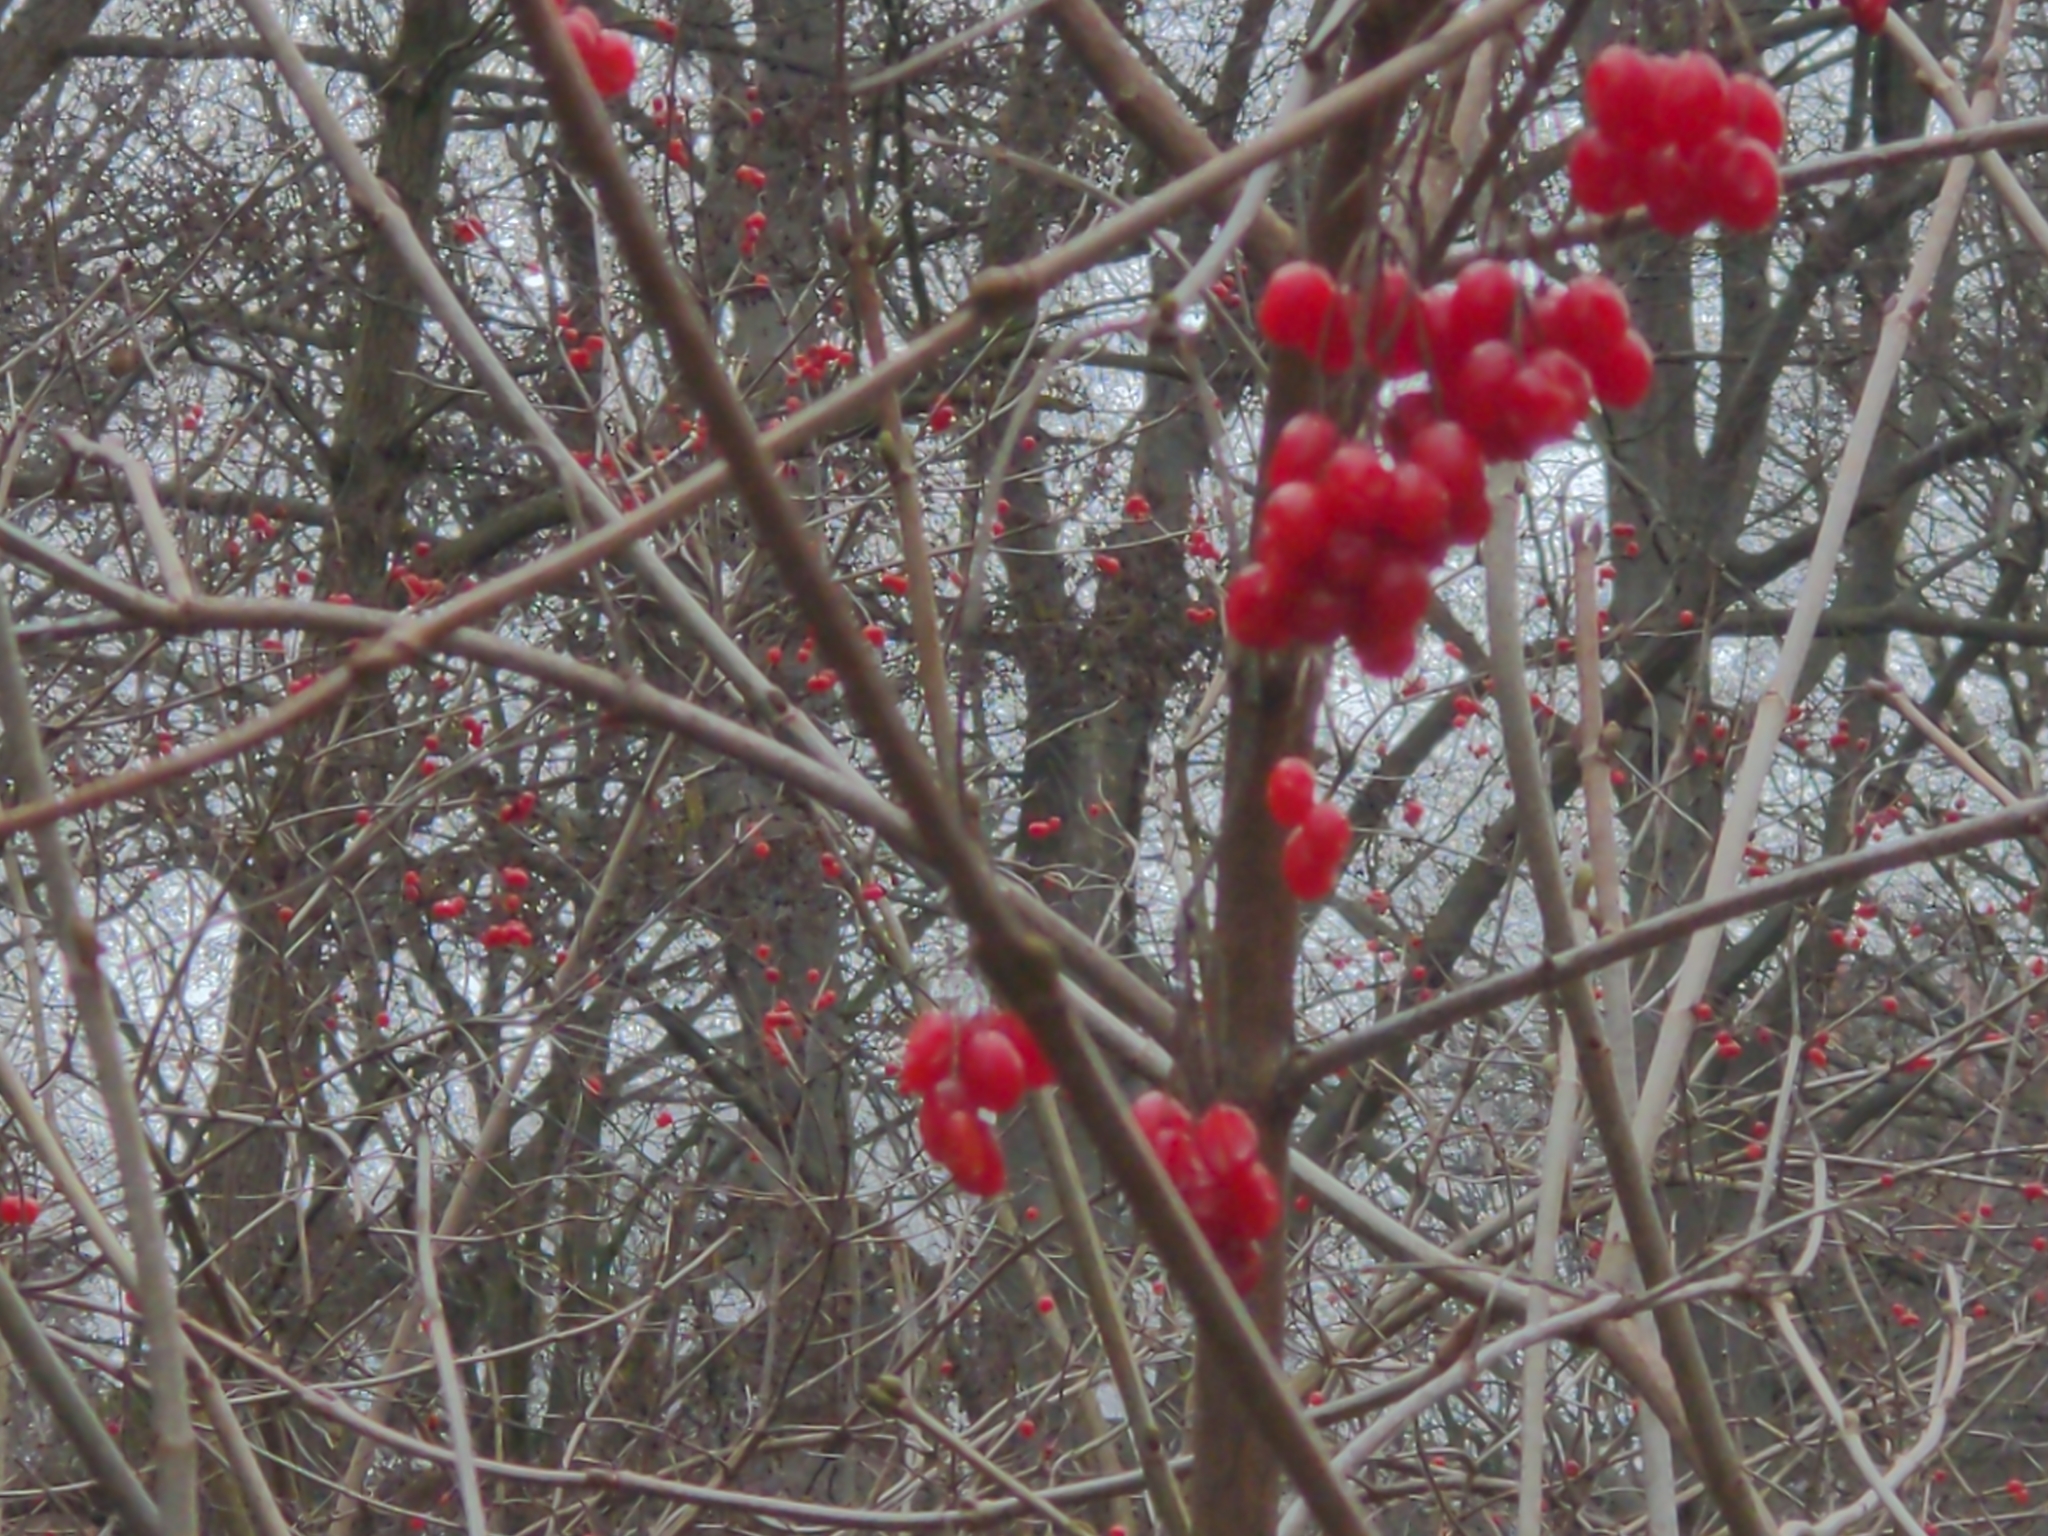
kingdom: Plantae
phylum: Tracheophyta
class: Magnoliopsida
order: Dipsacales
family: Viburnaceae
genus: Viburnum
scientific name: Viburnum opulus
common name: Guelder-rose
